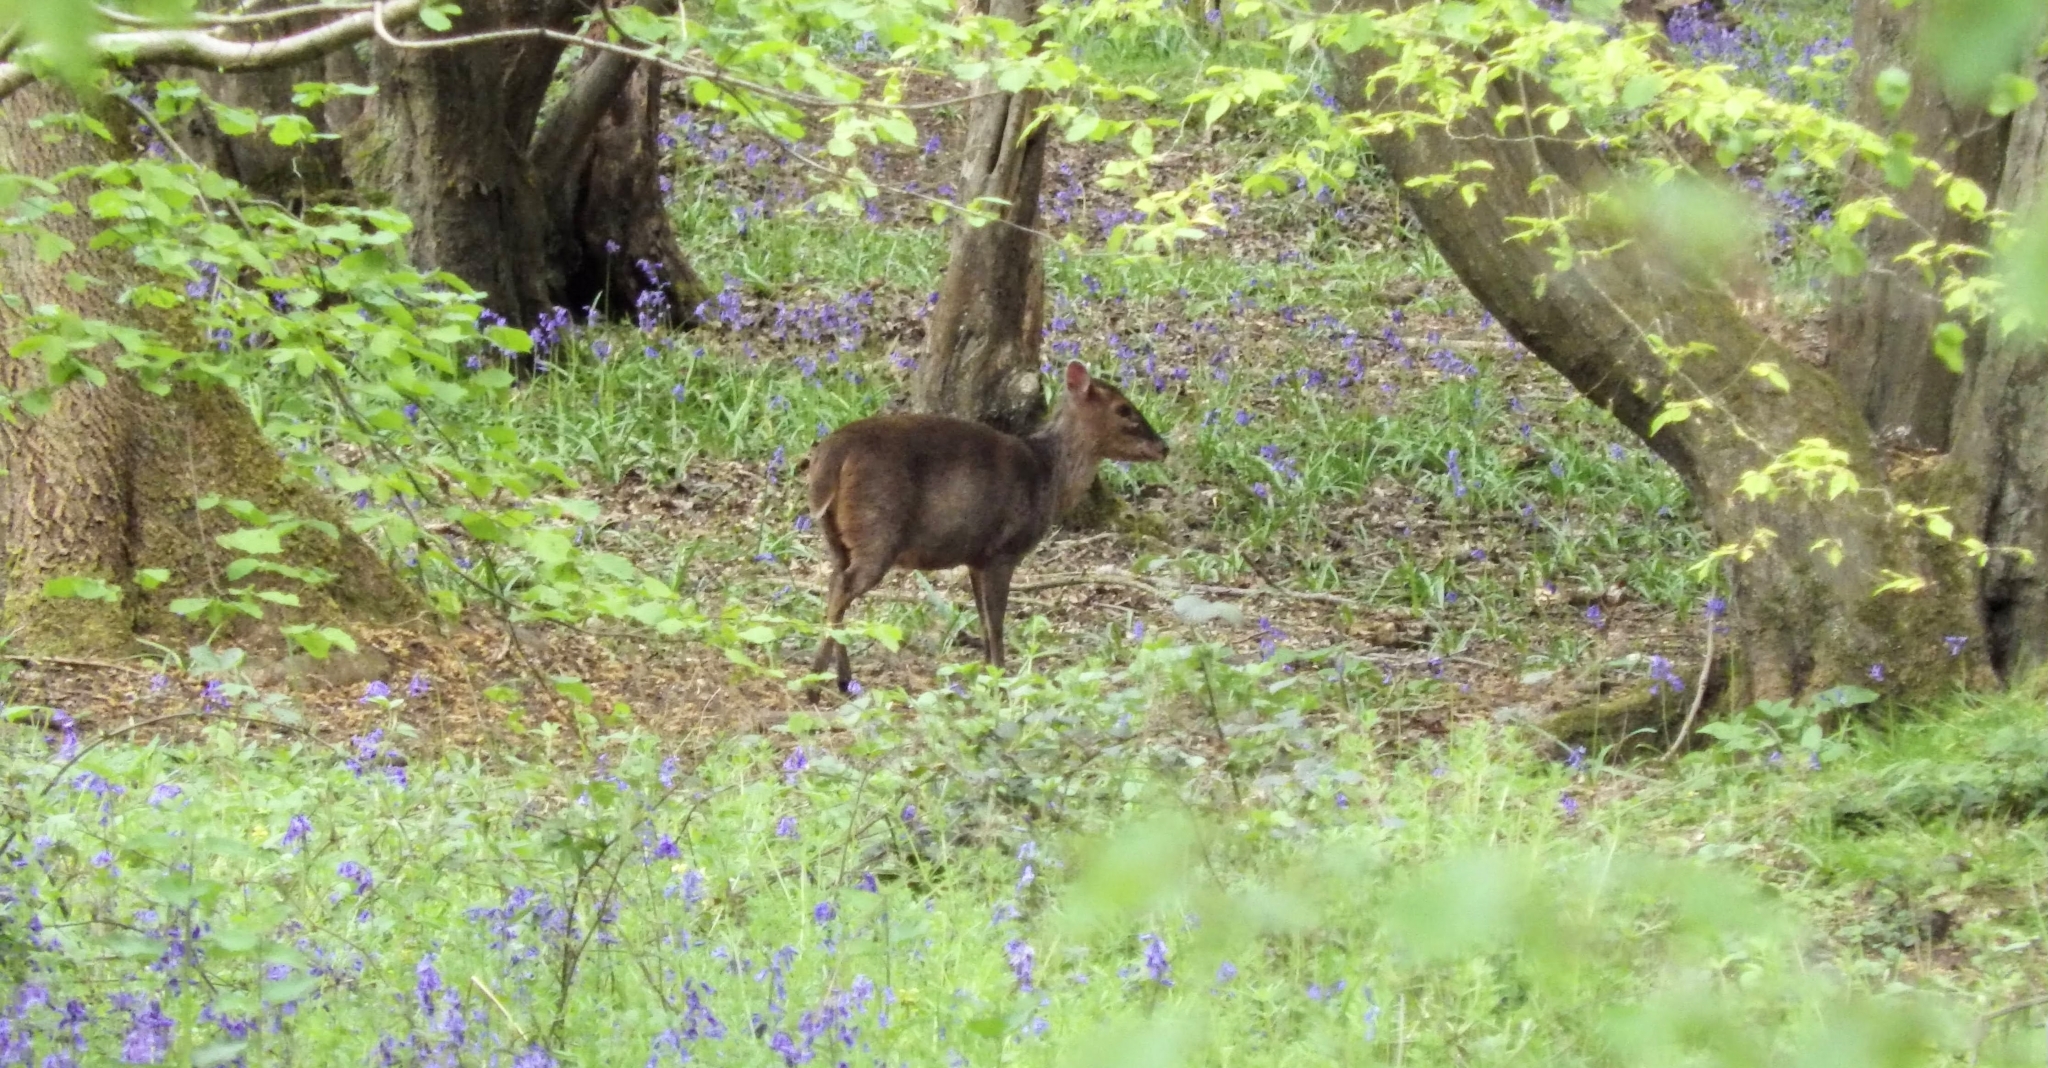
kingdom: Animalia
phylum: Chordata
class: Mammalia
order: Artiodactyla
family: Cervidae
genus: Muntiacus
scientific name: Muntiacus reevesi
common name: Reeves' muntjac
